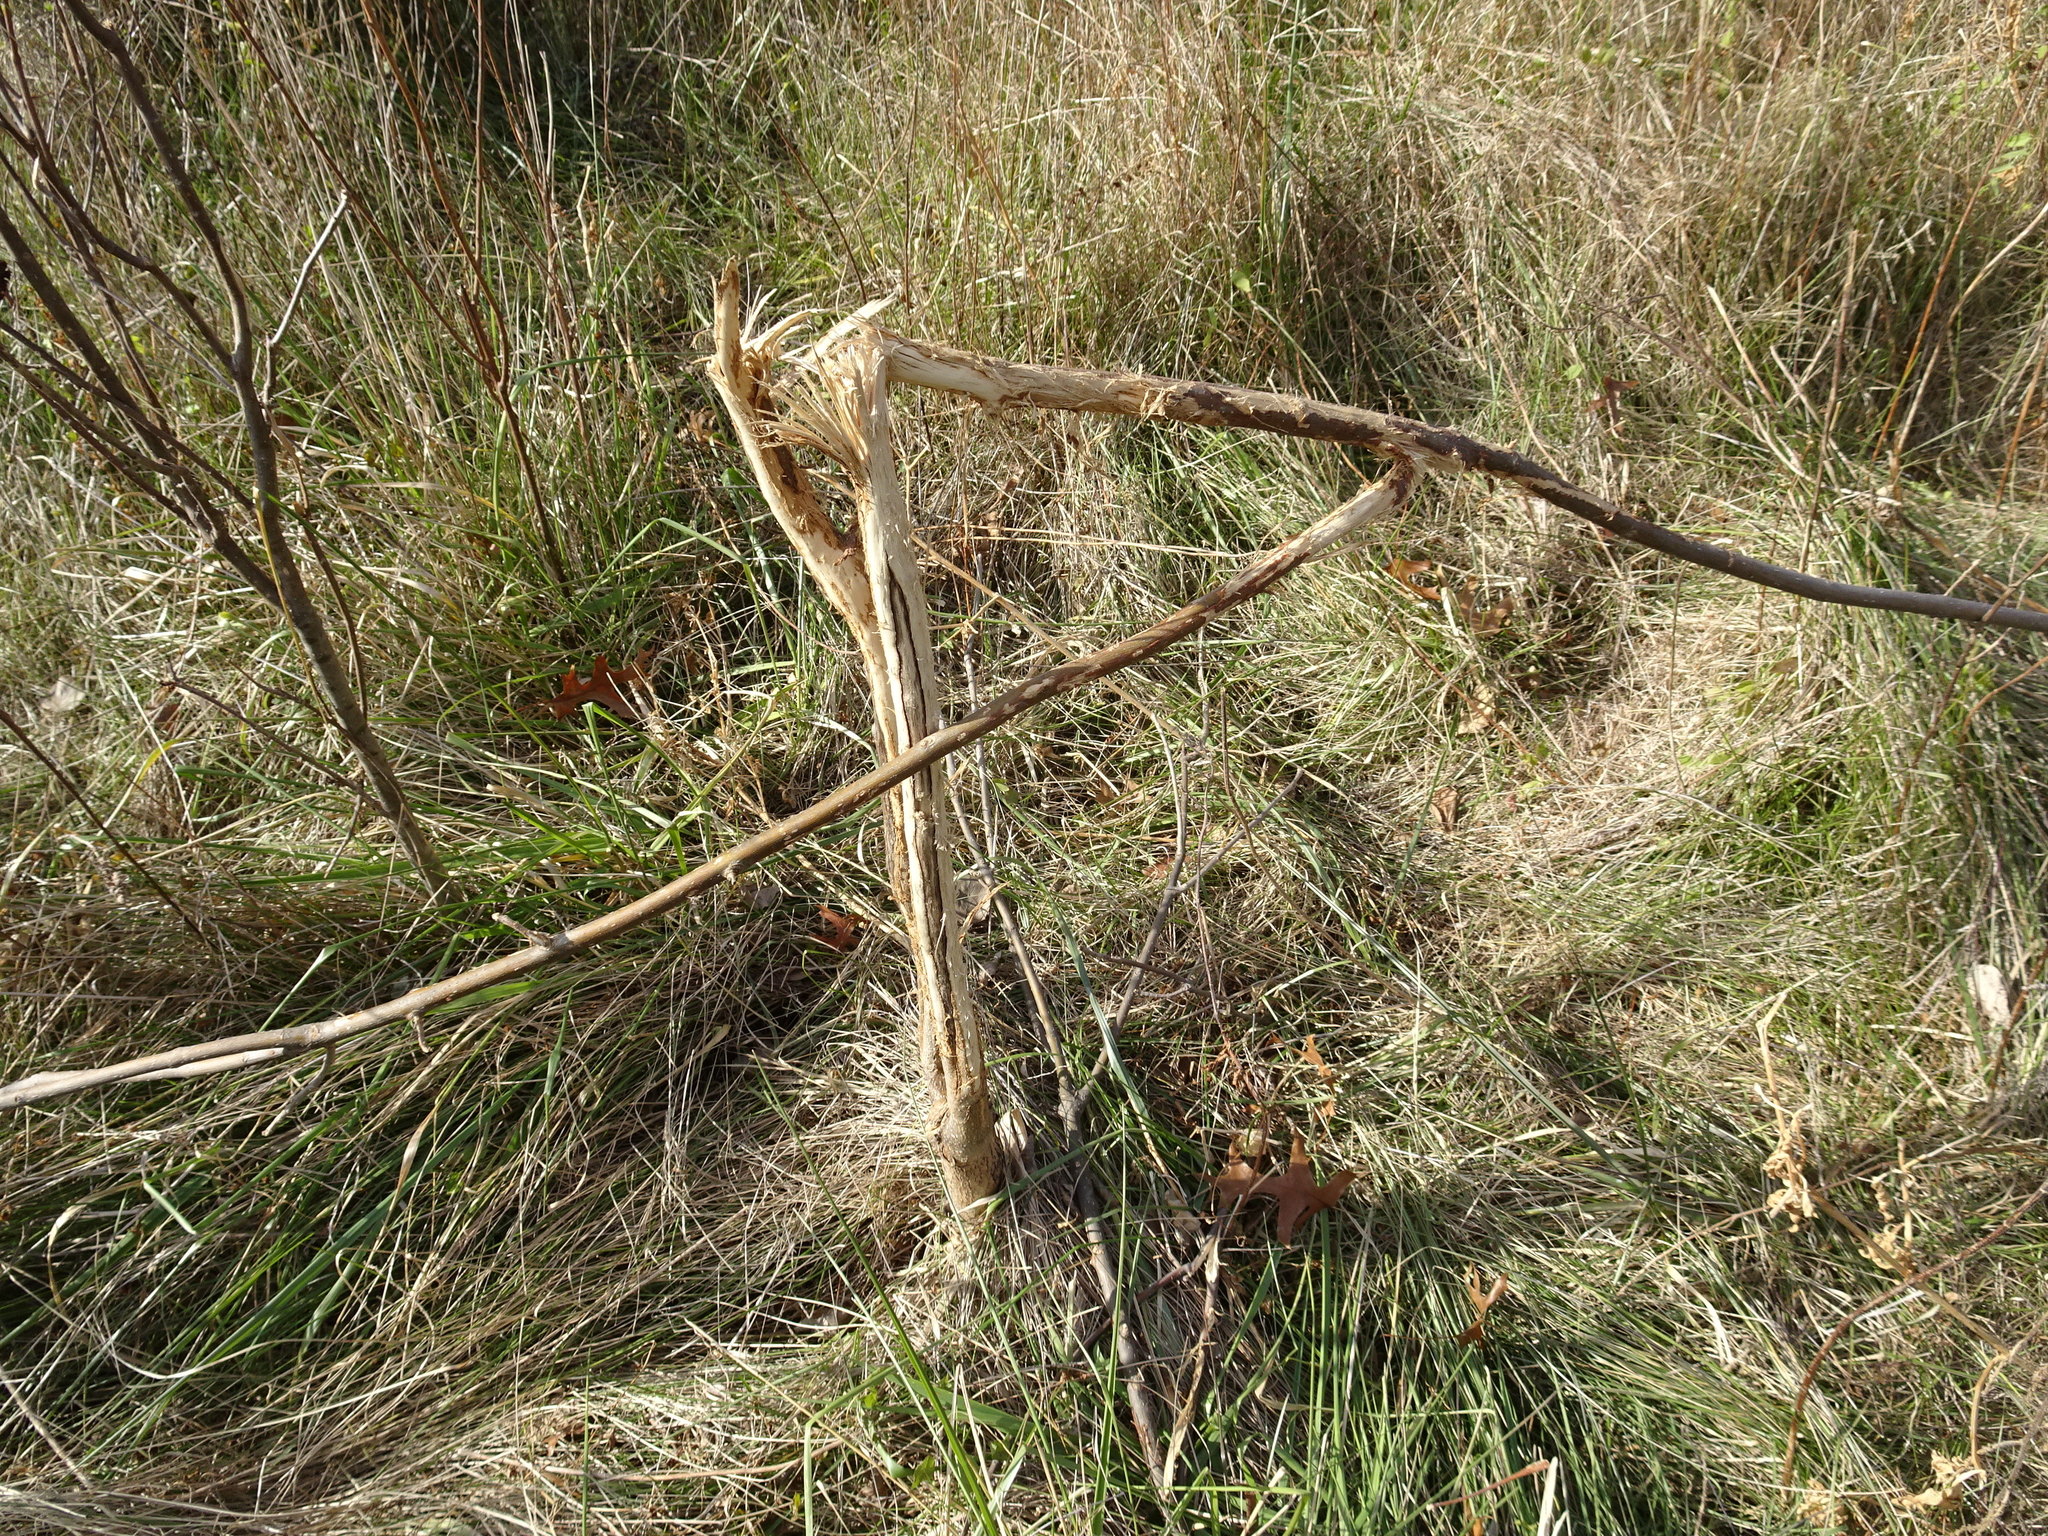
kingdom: Animalia
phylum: Chordata
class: Mammalia
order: Artiodactyla
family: Cervidae
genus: Odocoileus
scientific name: Odocoileus virginianus
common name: White-tailed deer
